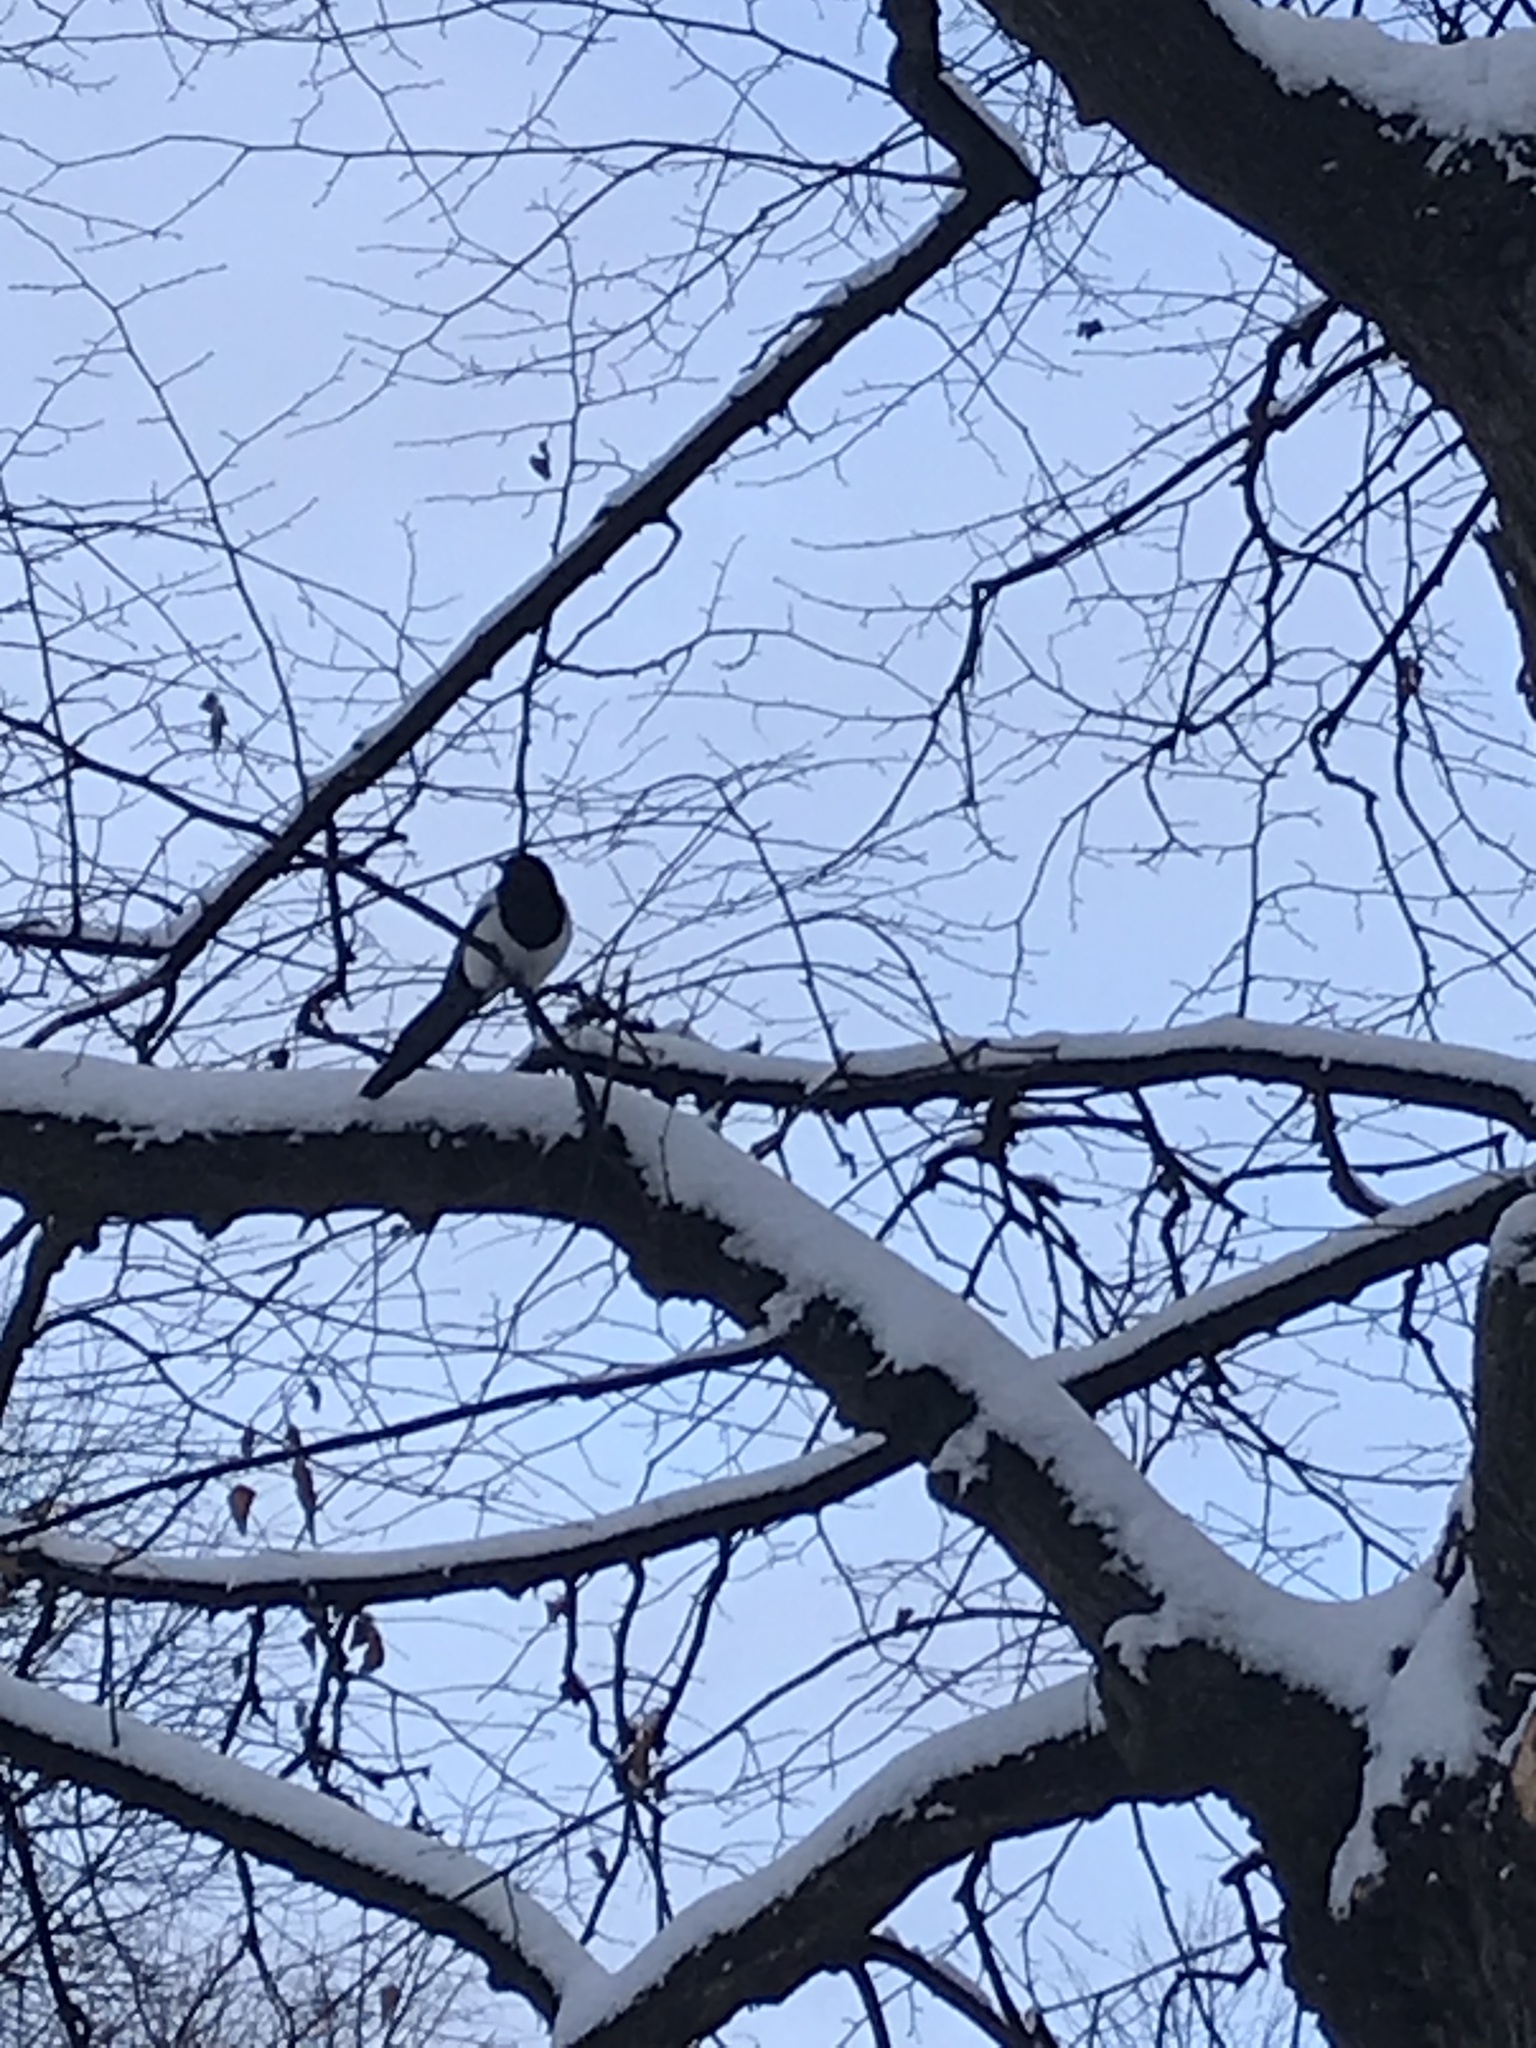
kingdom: Animalia
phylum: Chordata
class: Aves
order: Passeriformes
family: Corvidae
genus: Pica
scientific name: Pica pica
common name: Eurasian magpie
